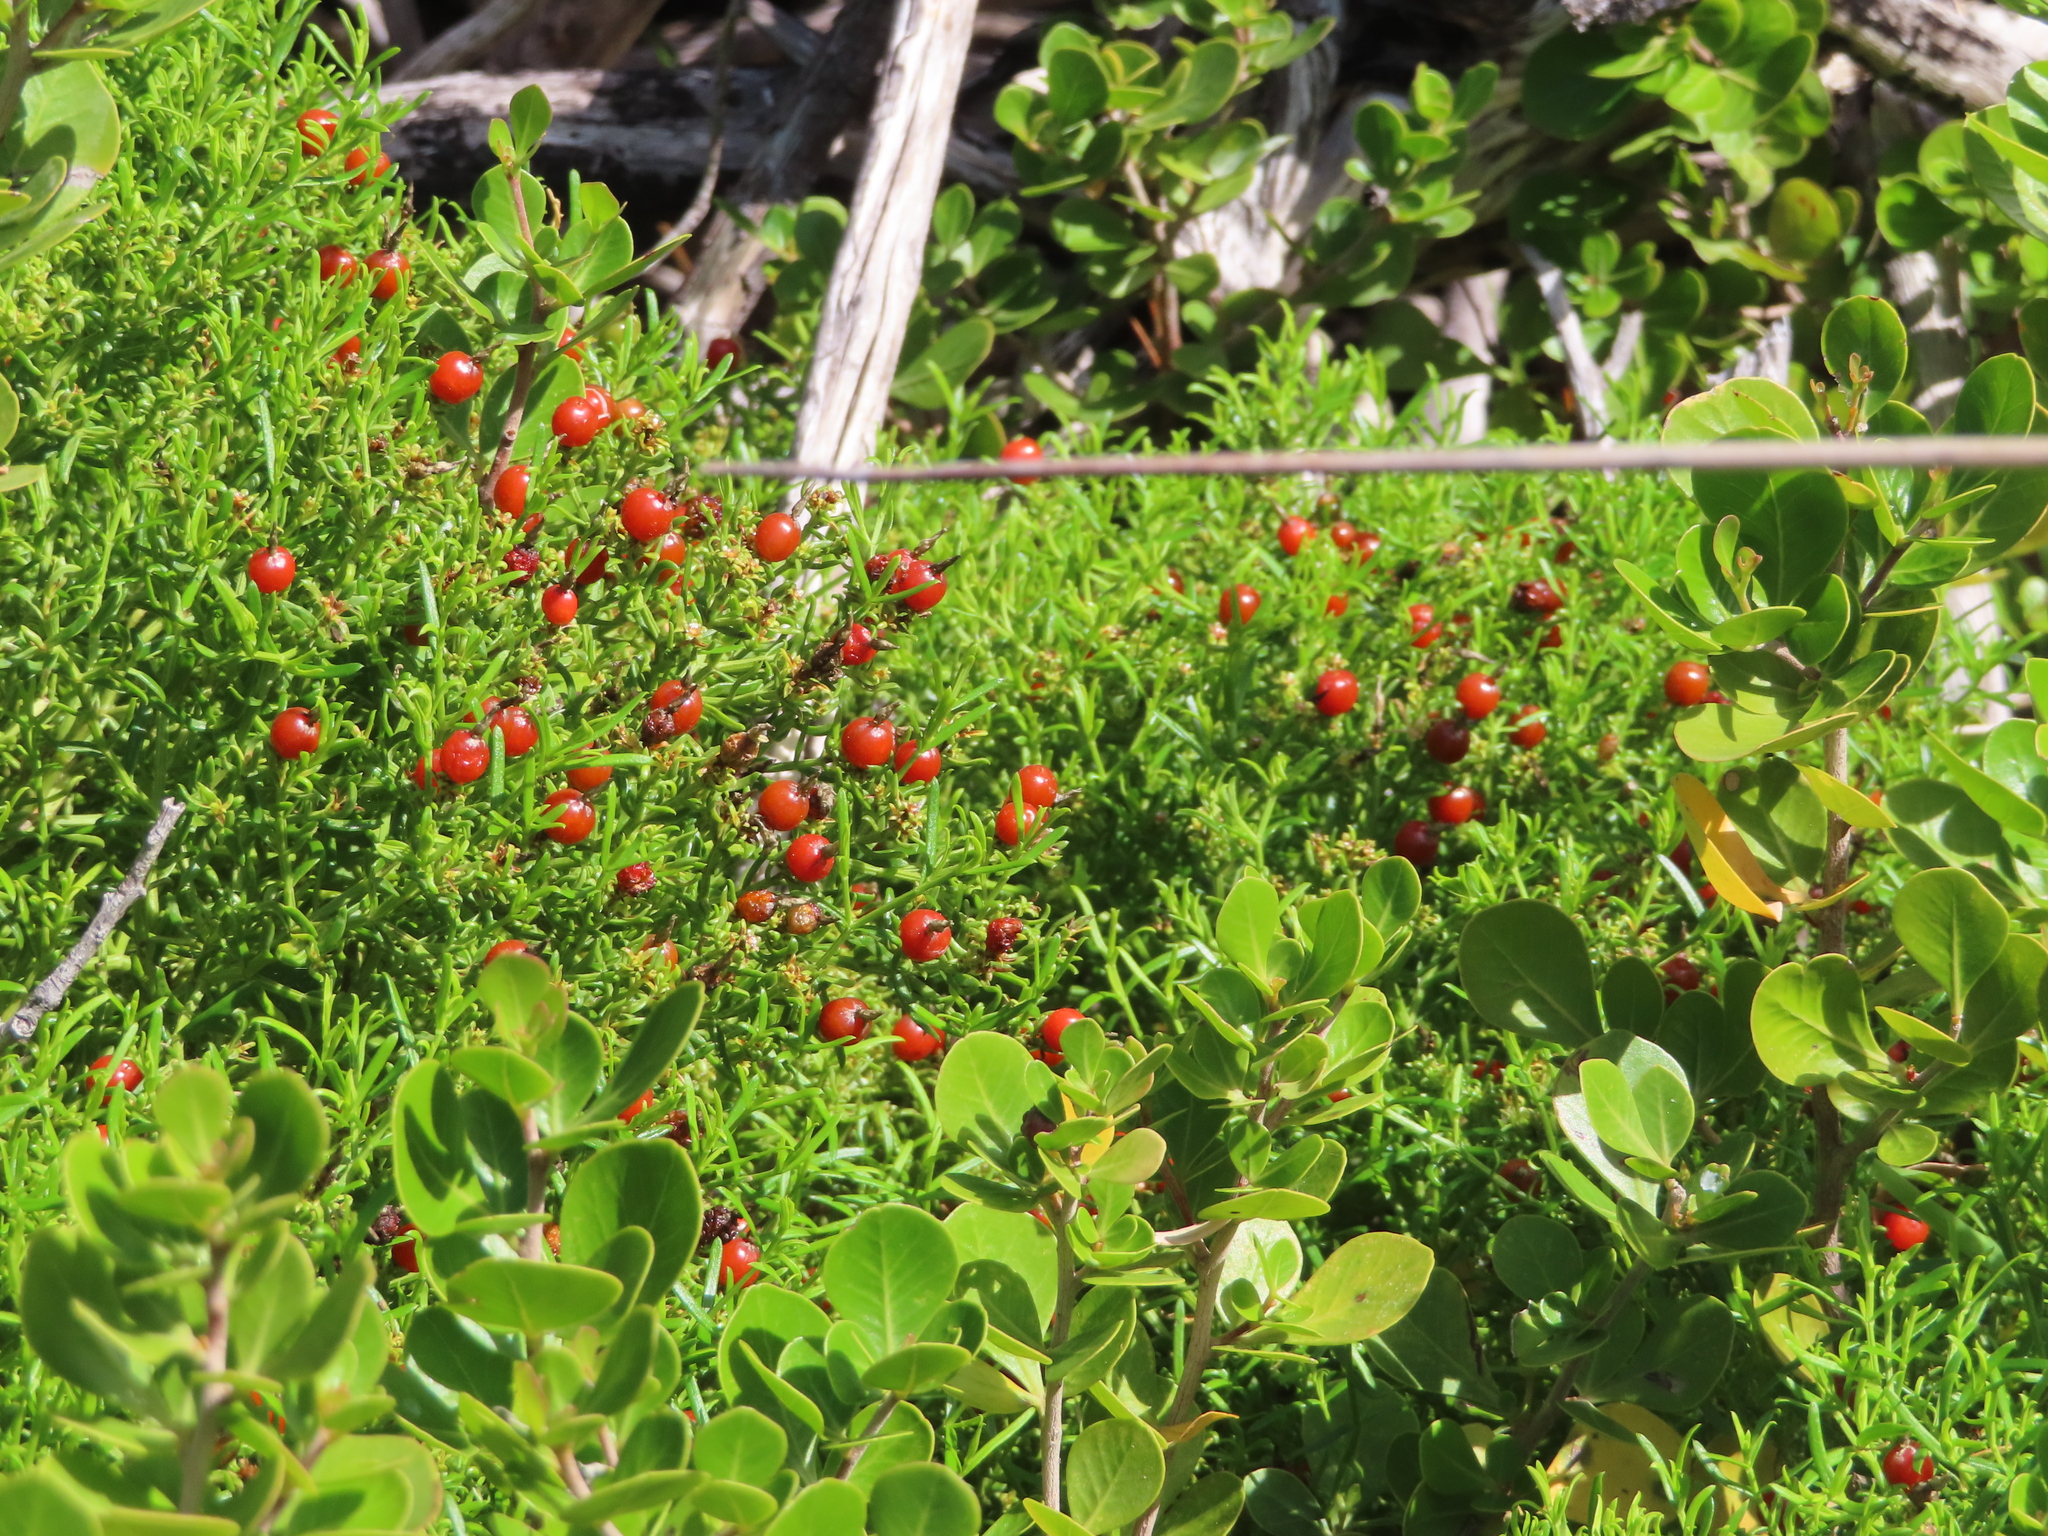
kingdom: Plantae
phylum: Tracheophyta
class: Magnoliopsida
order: Gentianales
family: Gentianaceae
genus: Chironia
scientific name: Chironia baccifera
